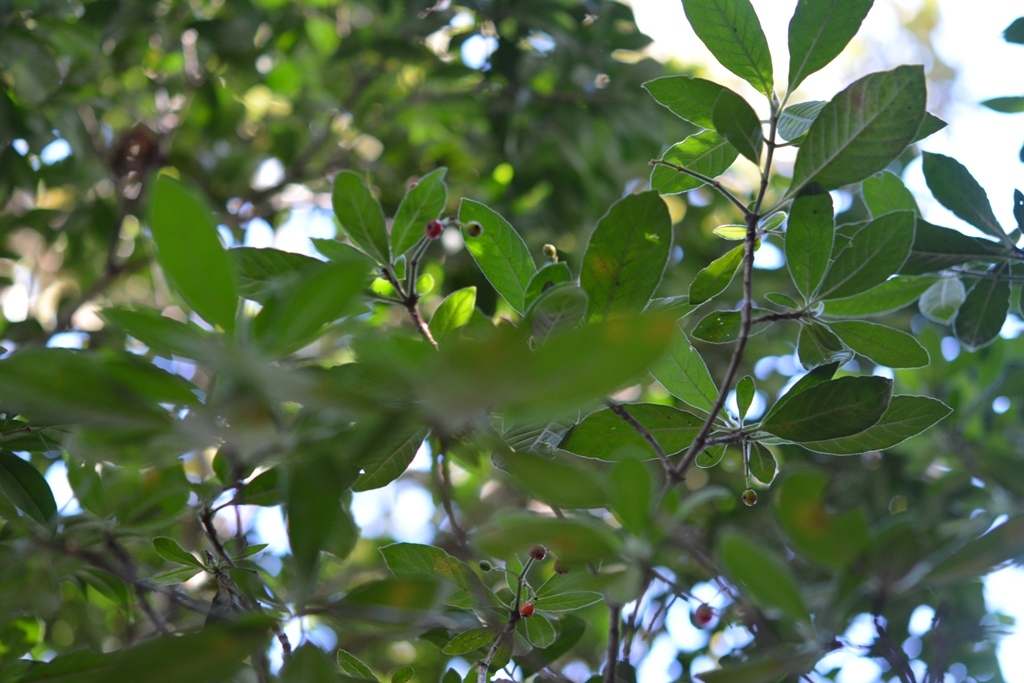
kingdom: Plantae
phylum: Tracheophyta
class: Magnoliopsida
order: Gentianales
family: Rubiaceae
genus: Psychotria
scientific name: Psychotria erythrocarpa
